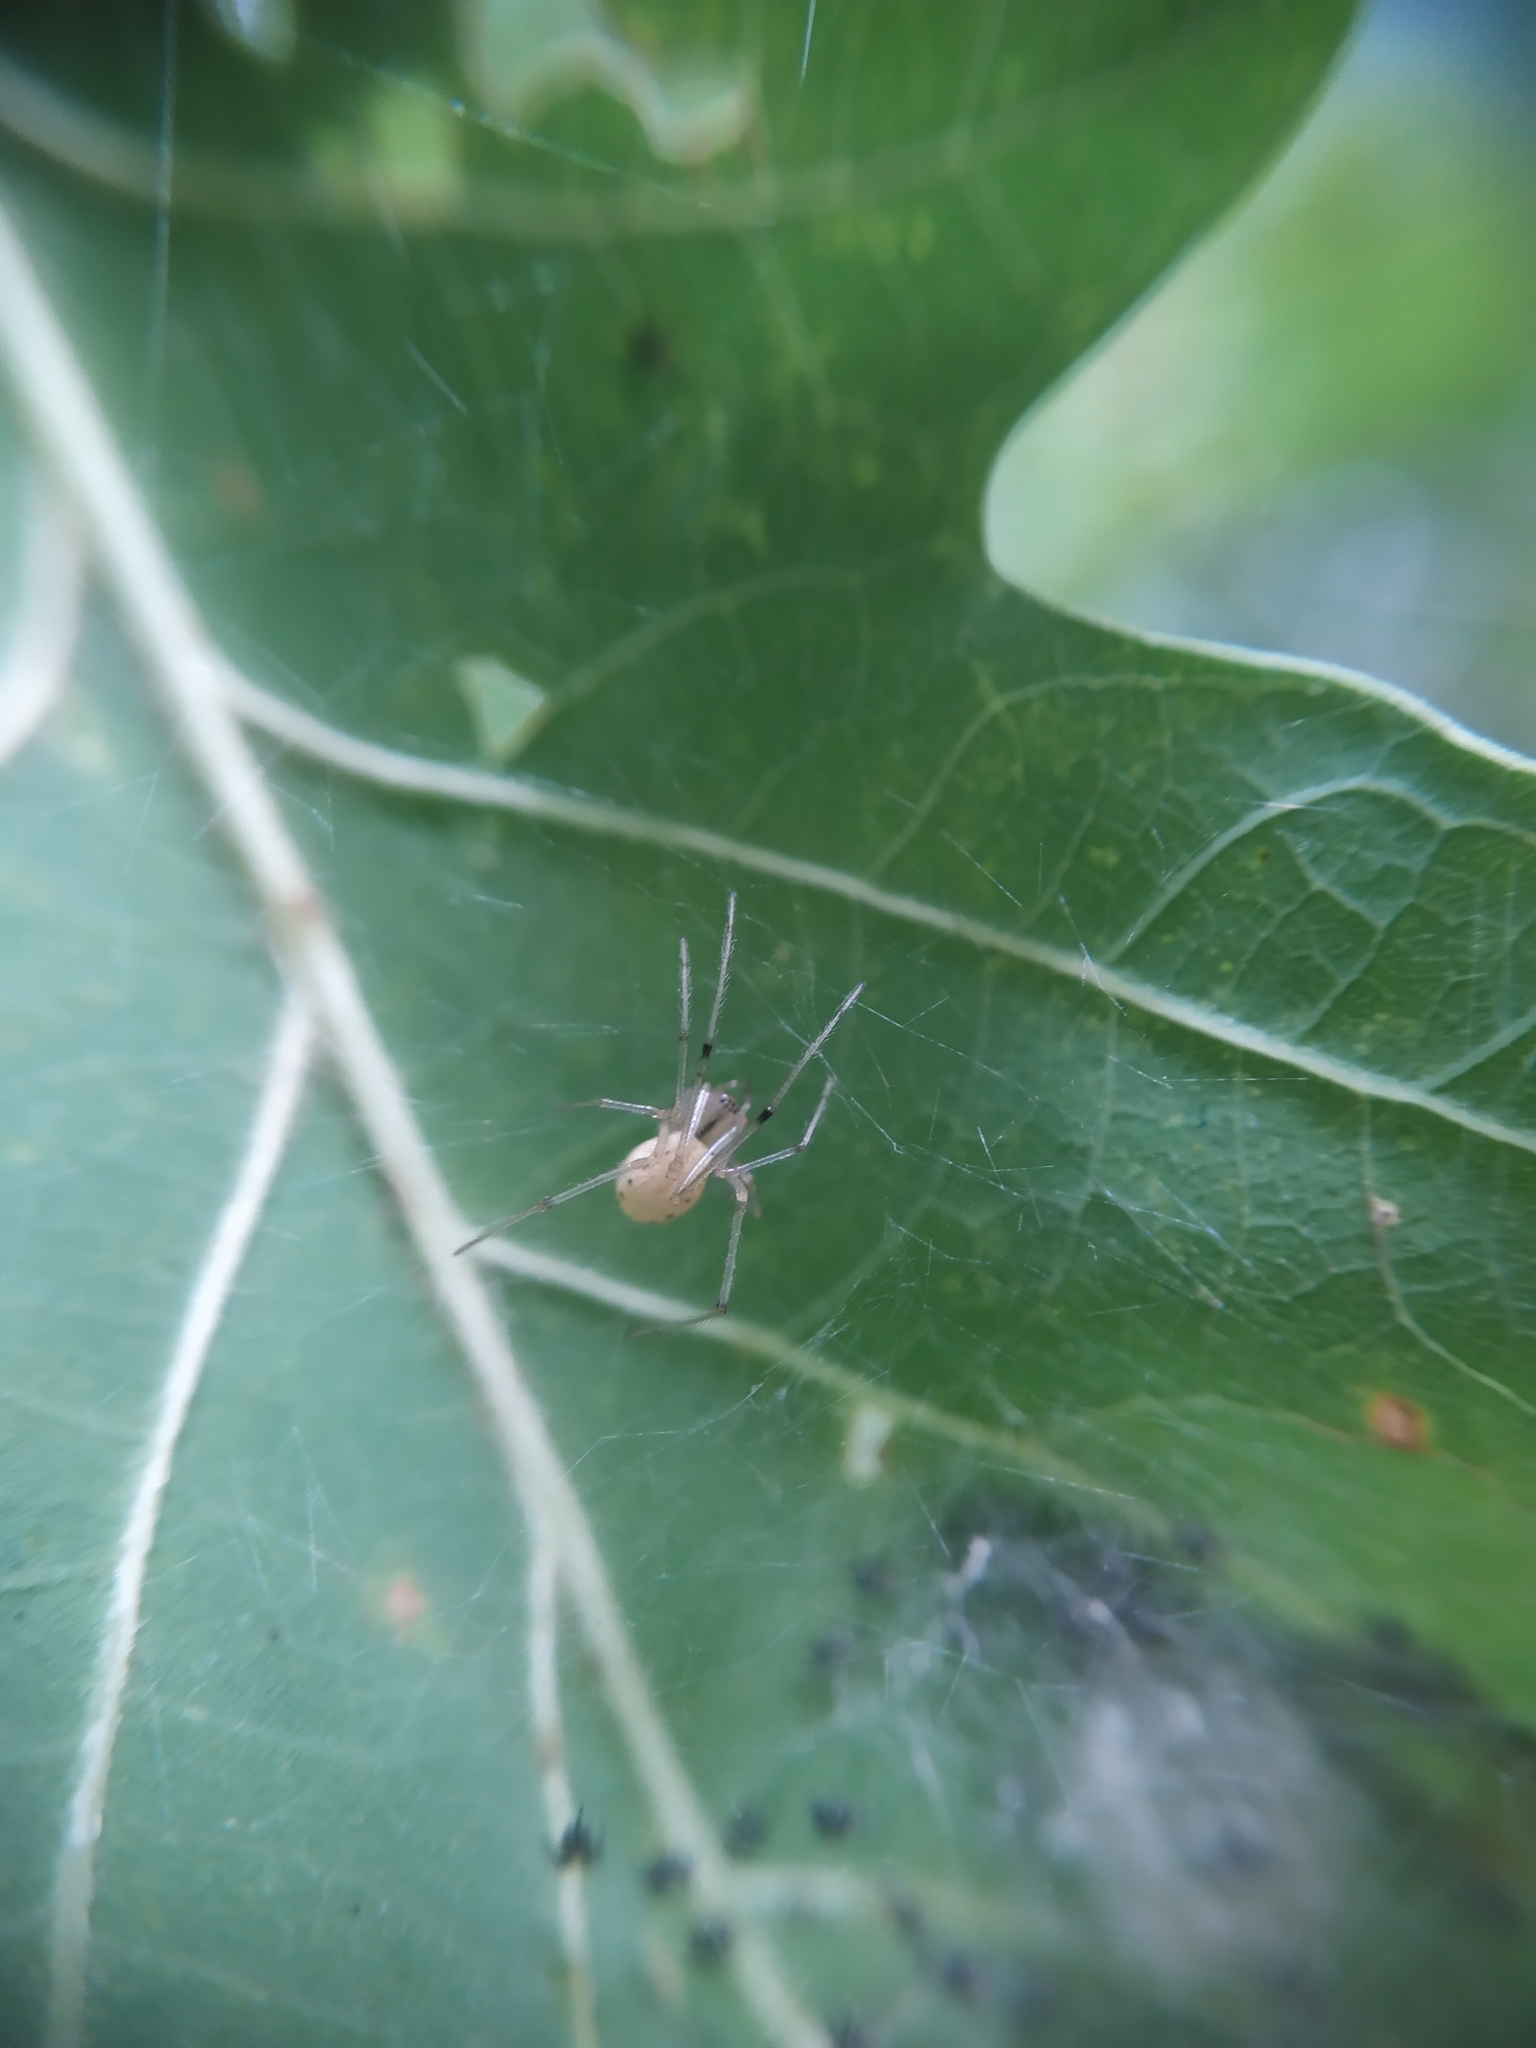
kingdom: Animalia
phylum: Arthropoda
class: Arachnida
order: Araneae
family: Theridiidae
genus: Enoplognatha
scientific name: Enoplognatha ovata
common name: Common candy-striped spider
